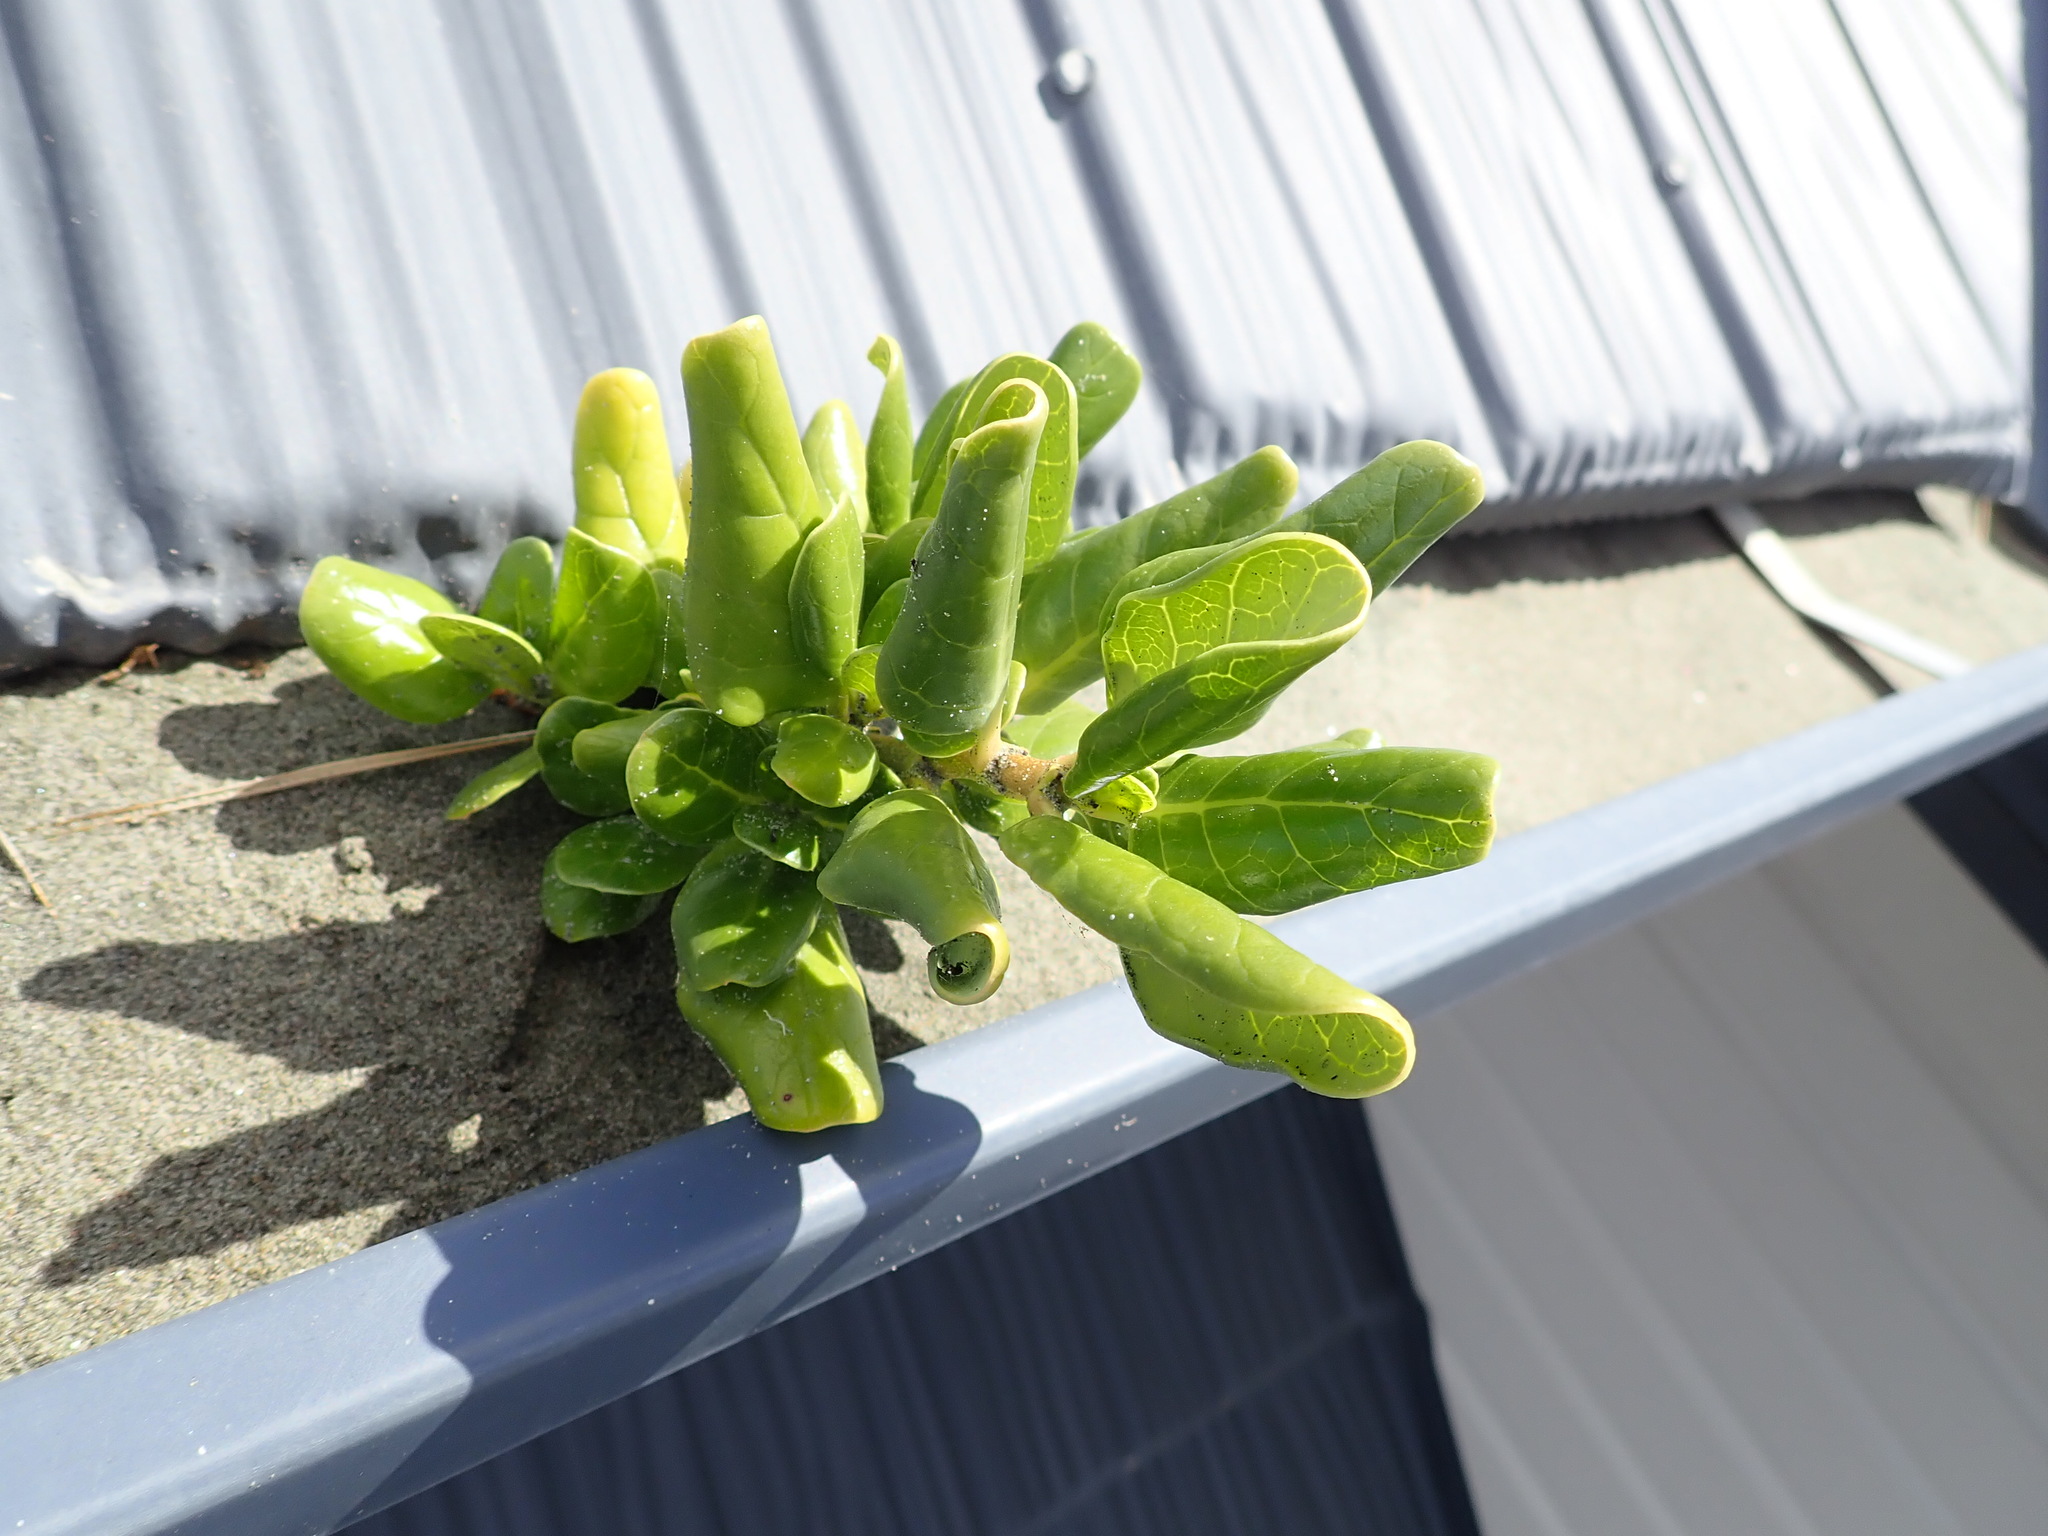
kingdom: Plantae
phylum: Tracheophyta
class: Magnoliopsida
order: Gentianales
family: Rubiaceae
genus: Coprosma
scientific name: Coprosma repens
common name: Tree bedstraw
